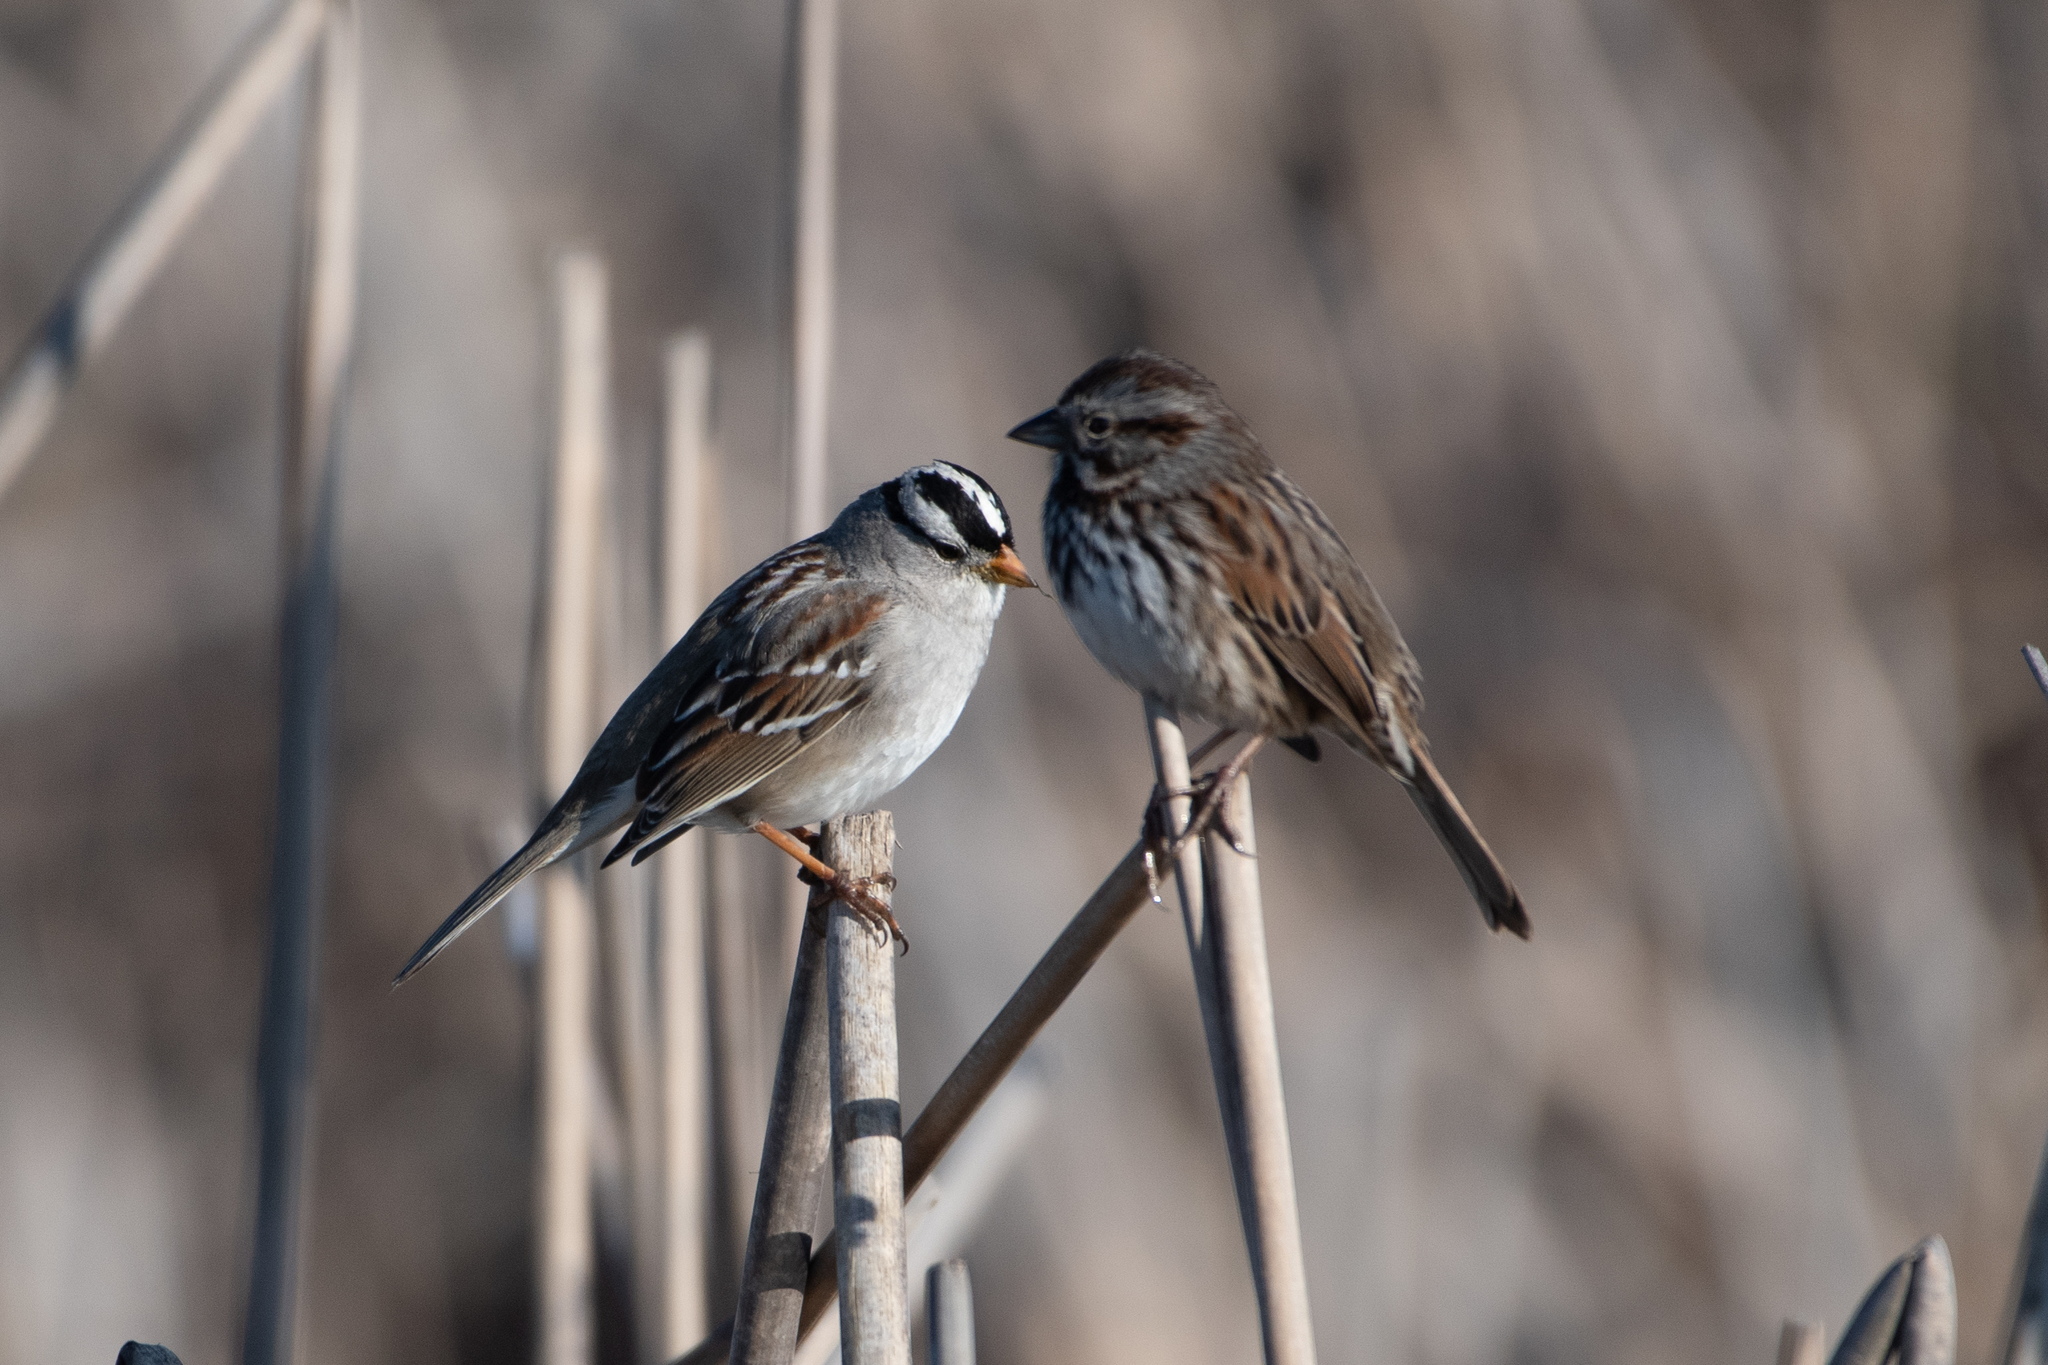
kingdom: Animalia
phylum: Chordata
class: Aves
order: Passeriformes
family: Passerellidae
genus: Melospiza
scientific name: Melospiza melodia
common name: Song sparrow
